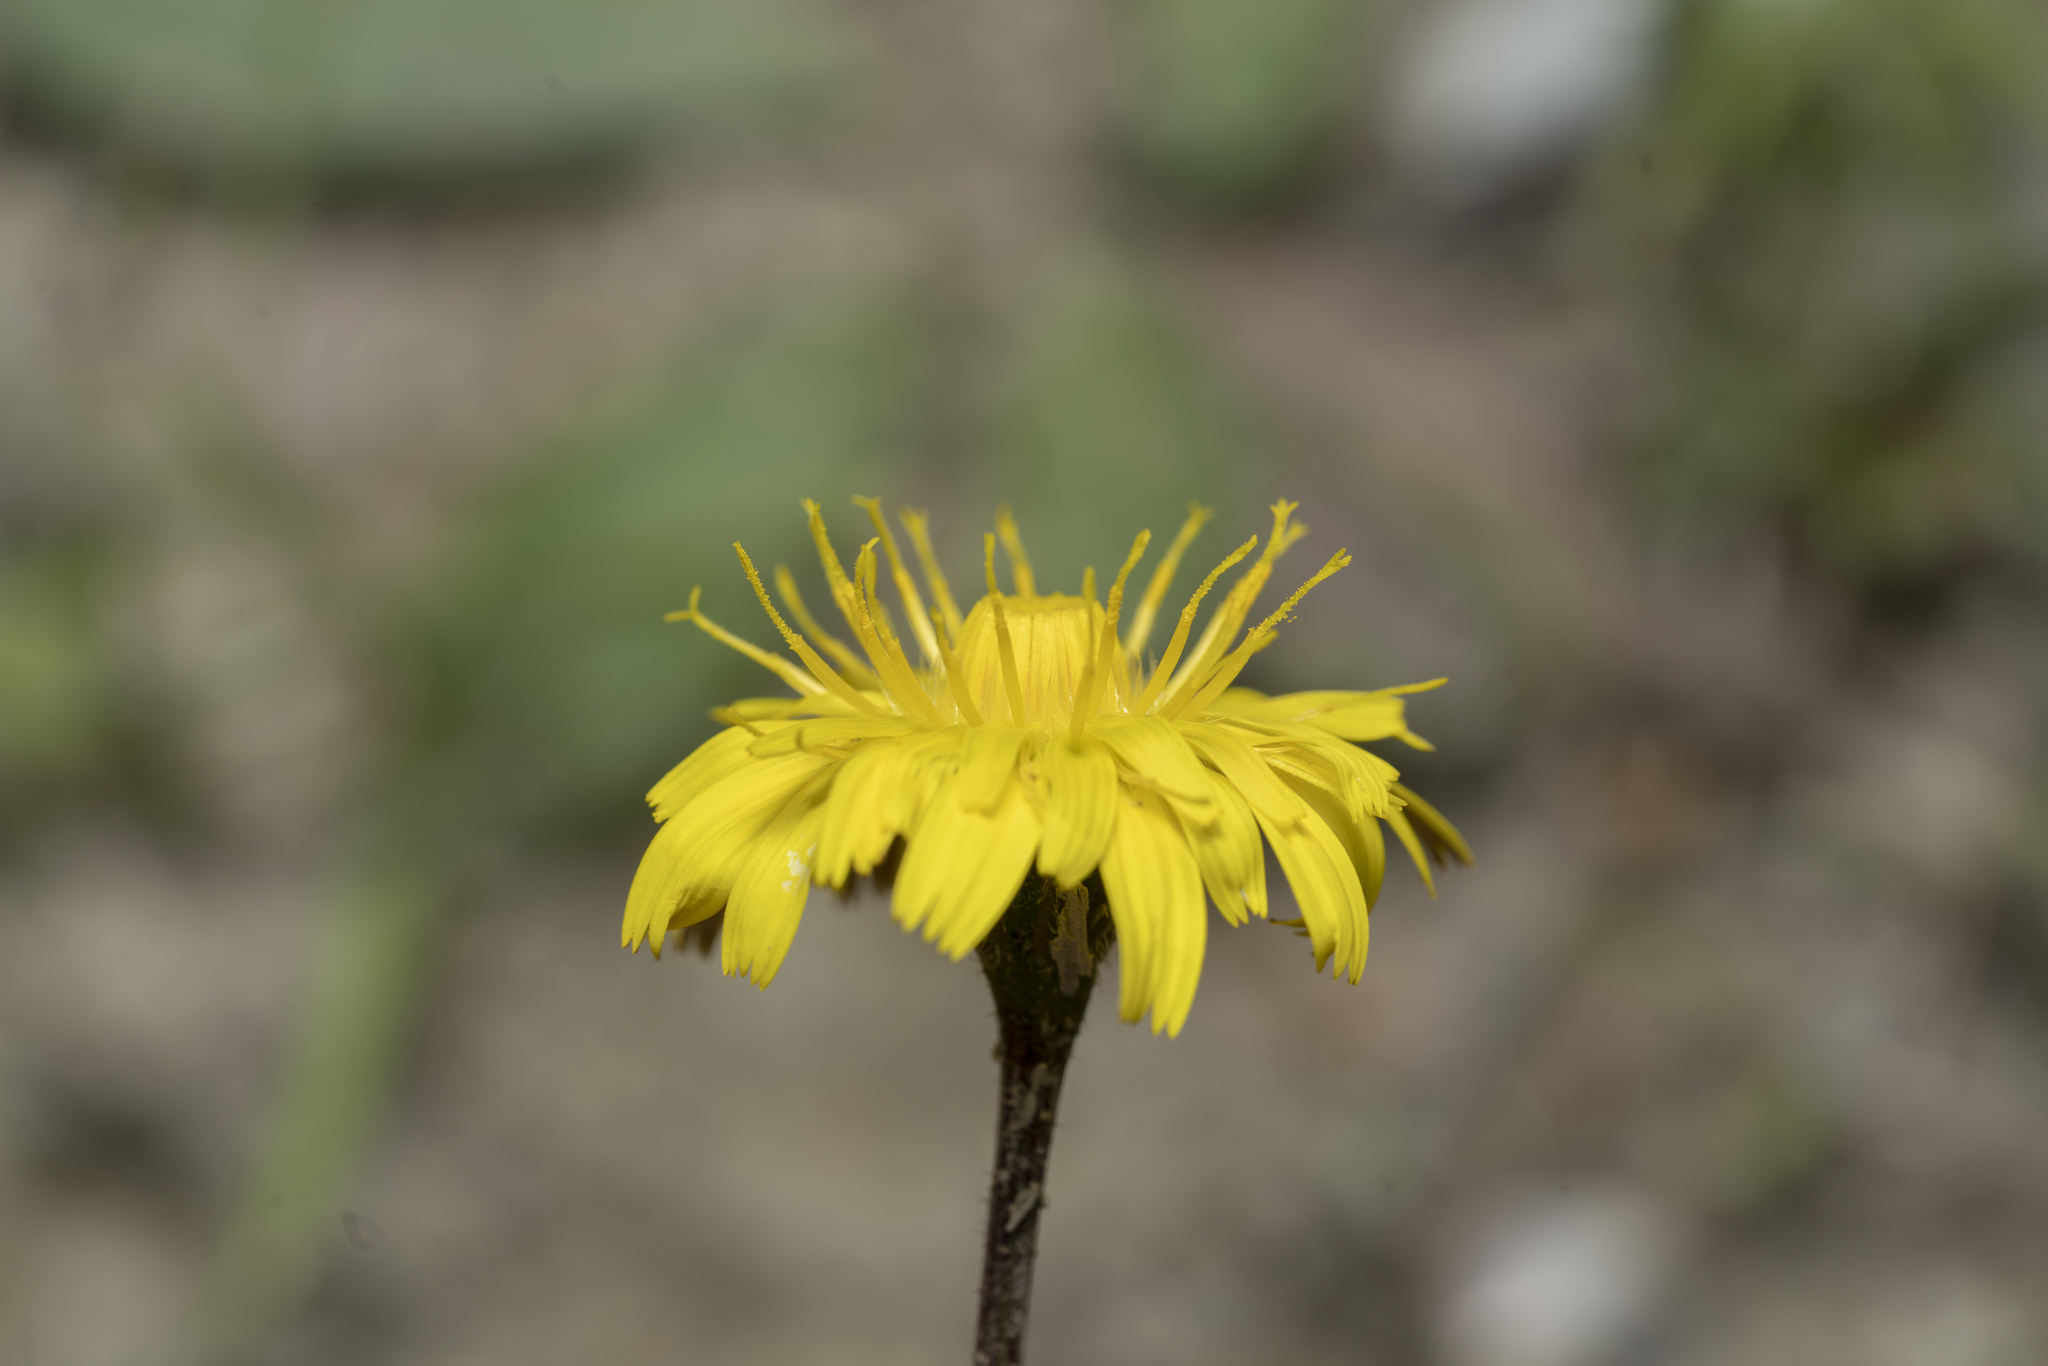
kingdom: Plantae
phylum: Tracheophyta
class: Magnoliopsida
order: Asterales
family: Asteraceae
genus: Leontodon
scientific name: Leontodon tuberosus
